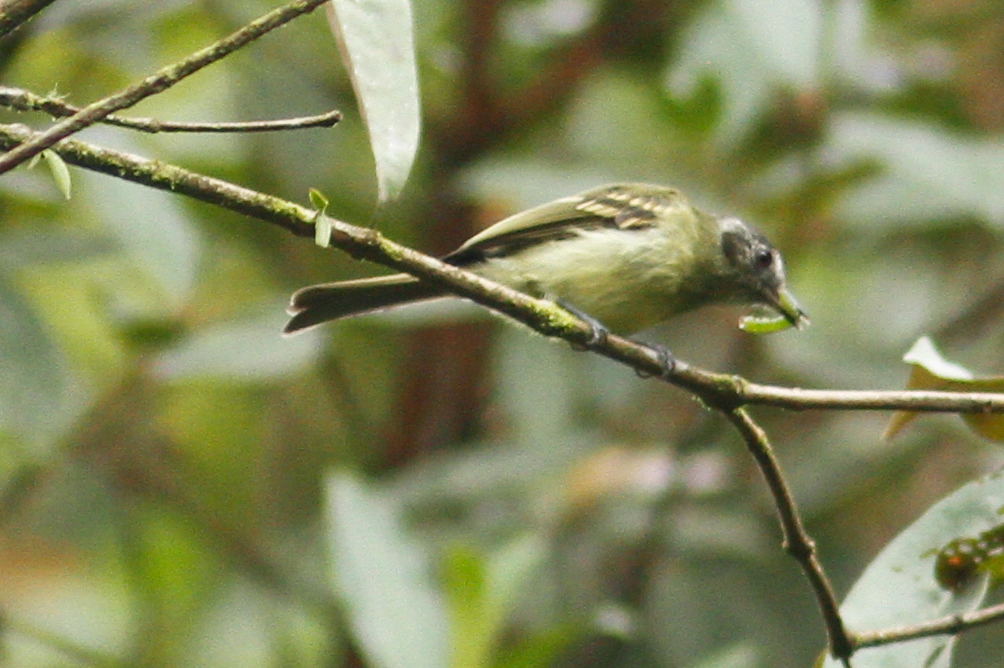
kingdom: Animalia
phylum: Chordata
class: Aves
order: Passeriformes
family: Tyrannidae
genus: Leptopogon
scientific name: Leptopogon superciliaris
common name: Slaty-capped flycatcher
